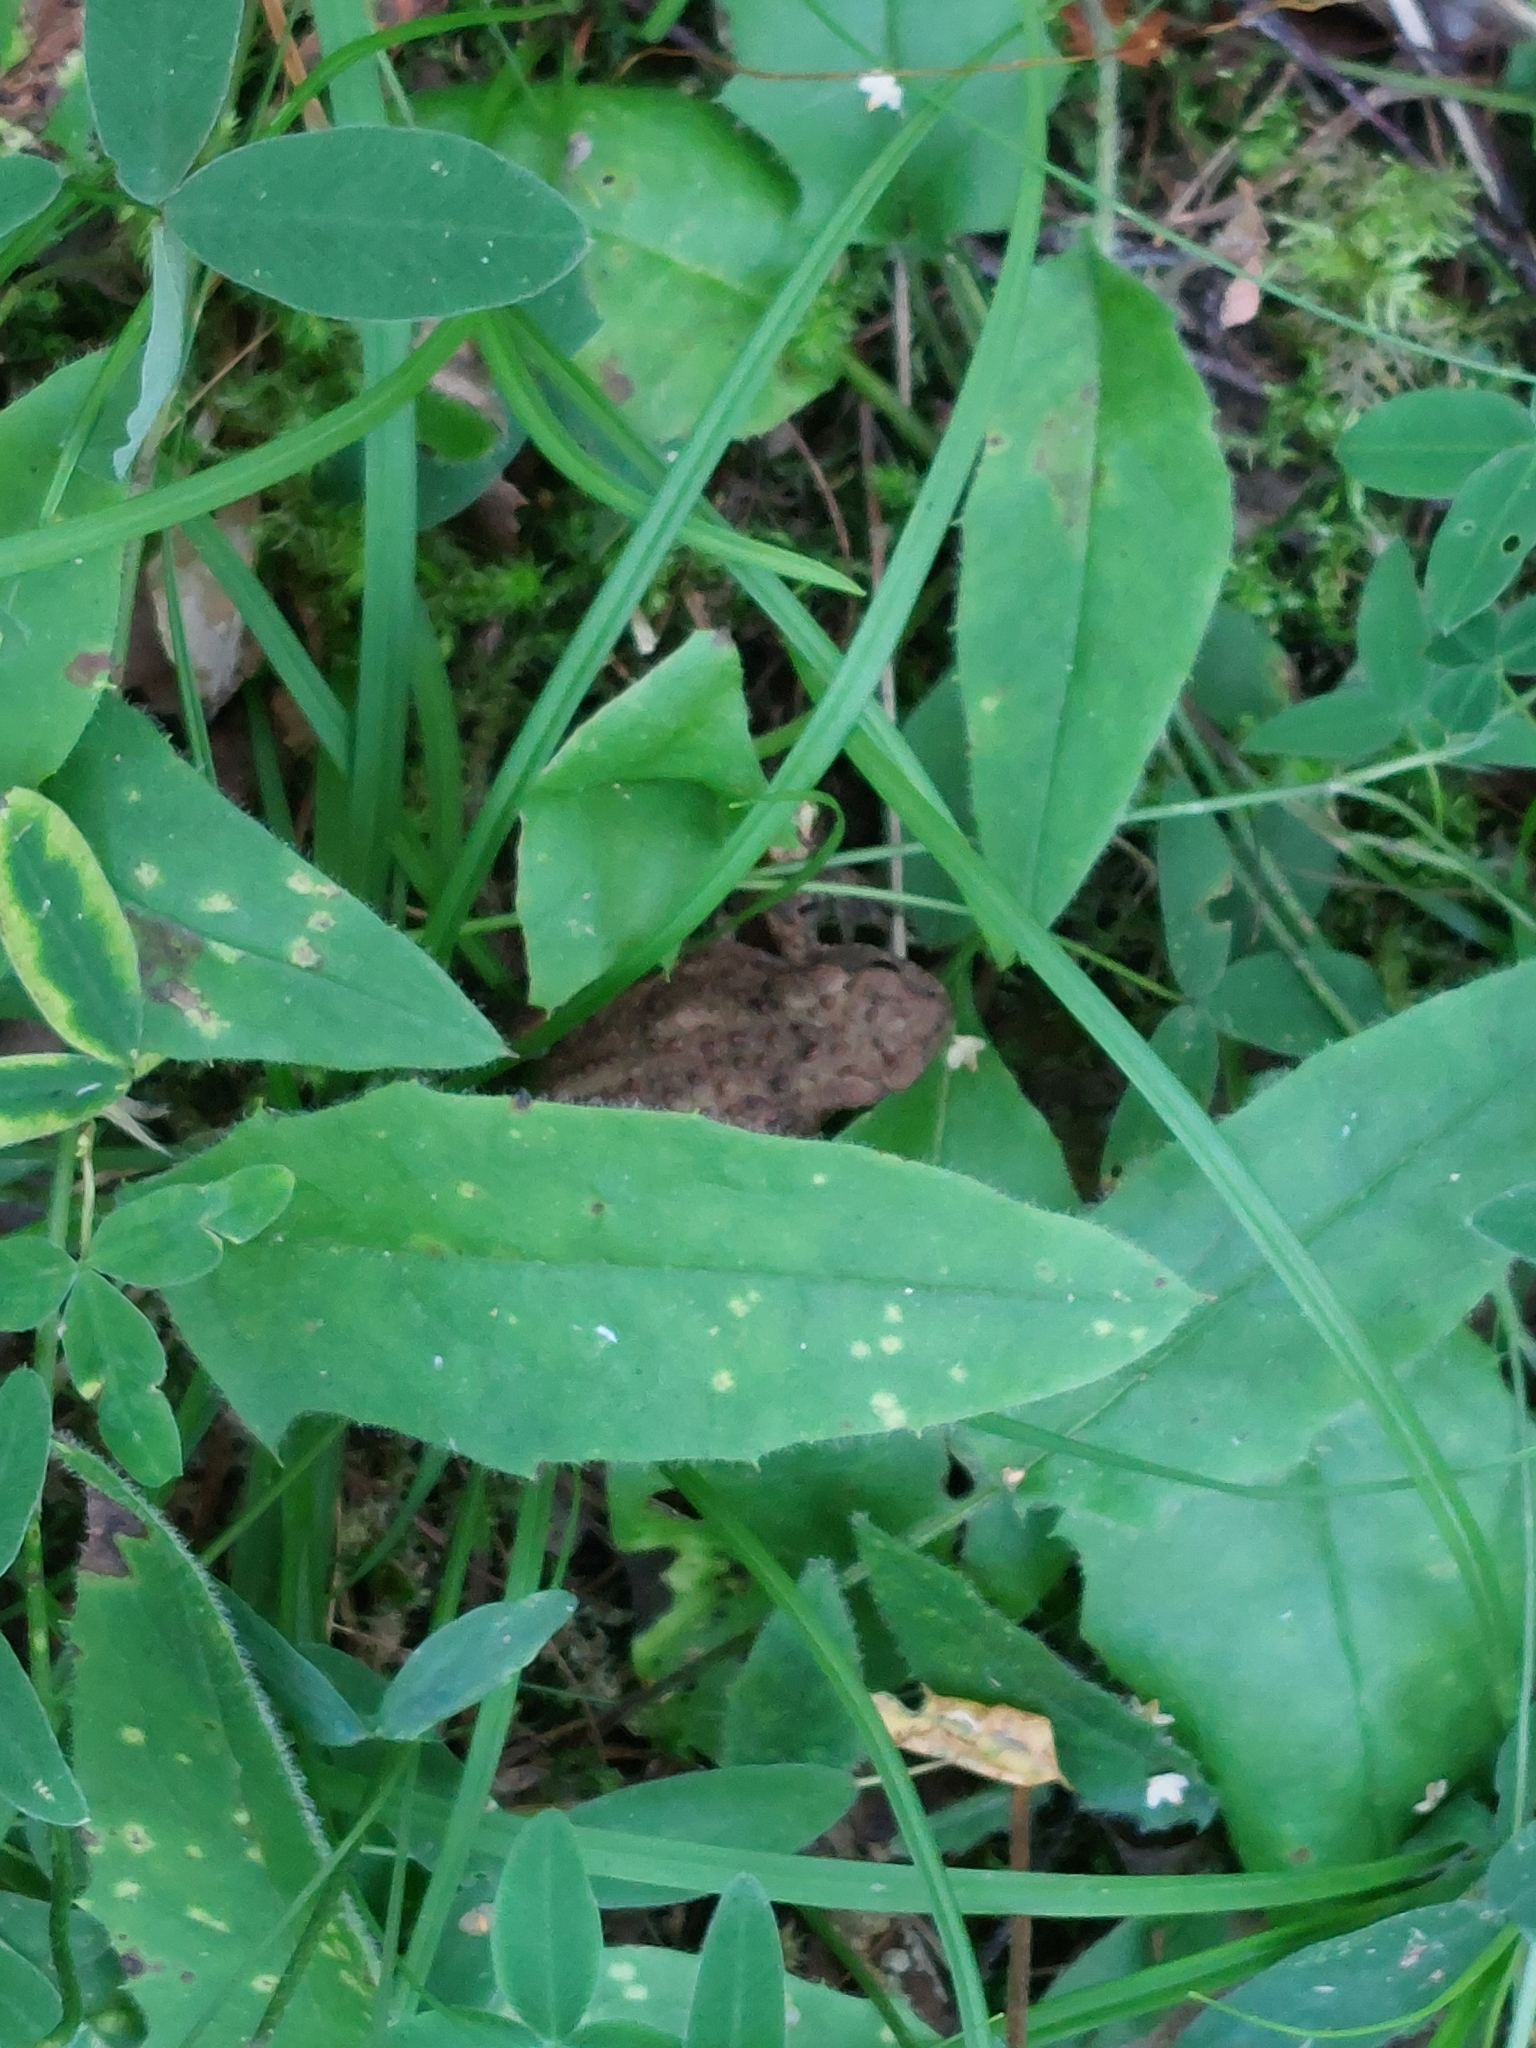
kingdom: Animalia
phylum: Chordata
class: Amphibia
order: Anura
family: Bufonidae
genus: Bufo
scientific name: Bufo bufo
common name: Common toad
